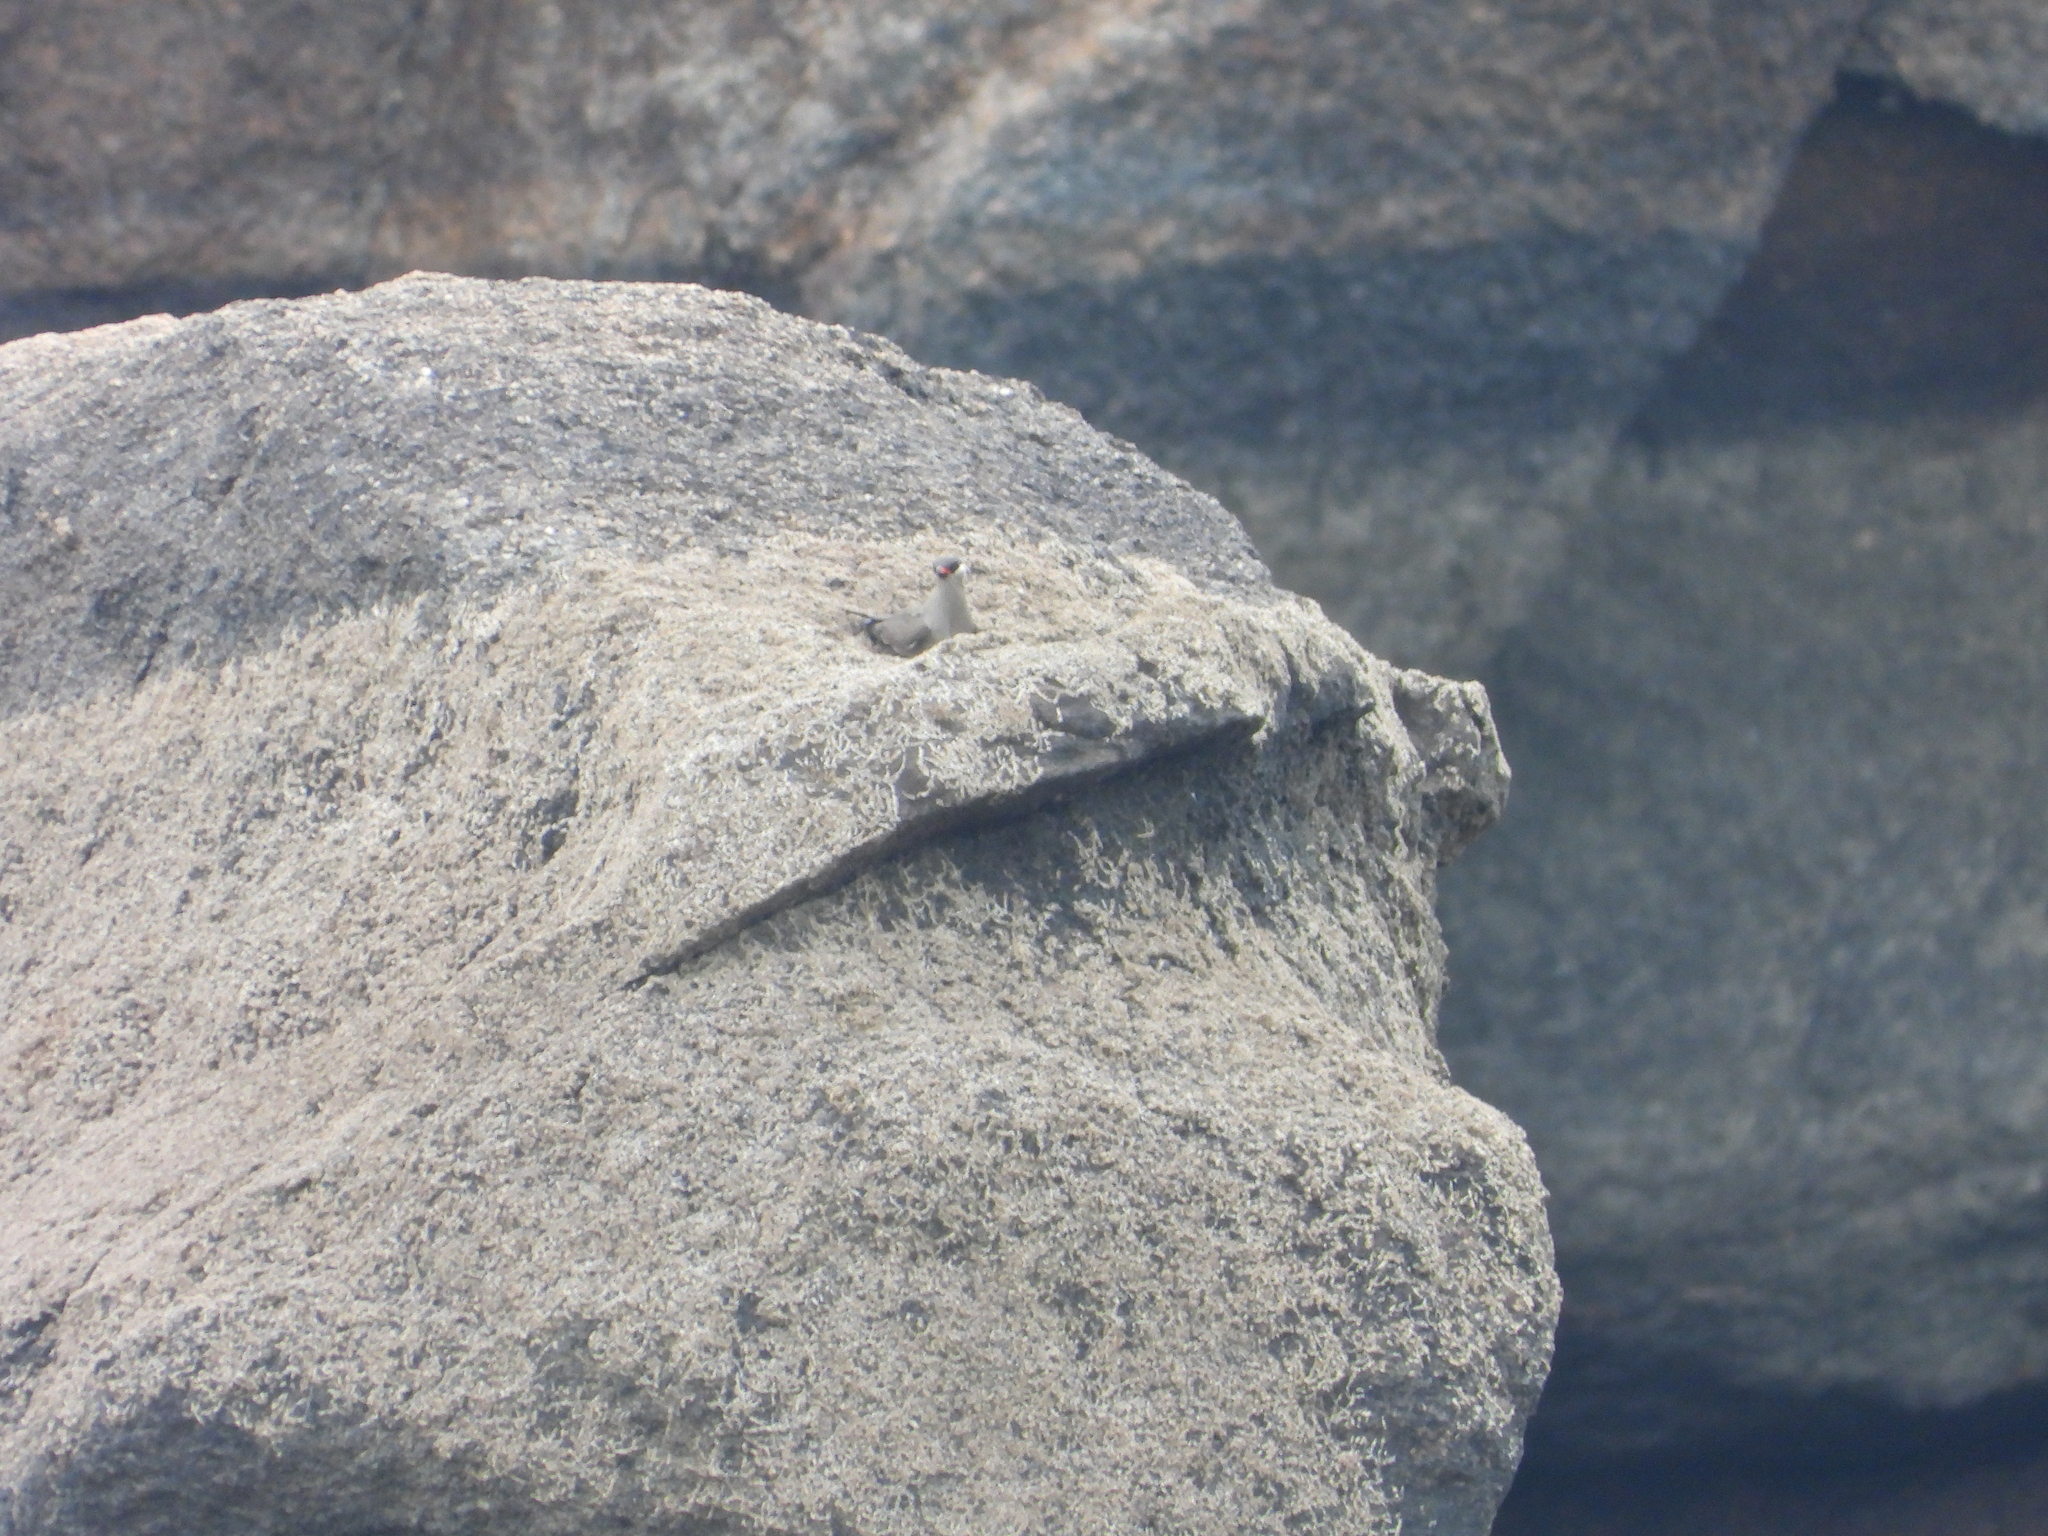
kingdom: Animalia
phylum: Chordata
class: Aves
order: Charadriiformes
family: Glareolidae
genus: Glareola
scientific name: Glareola nuchalis
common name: Rock pratincole
